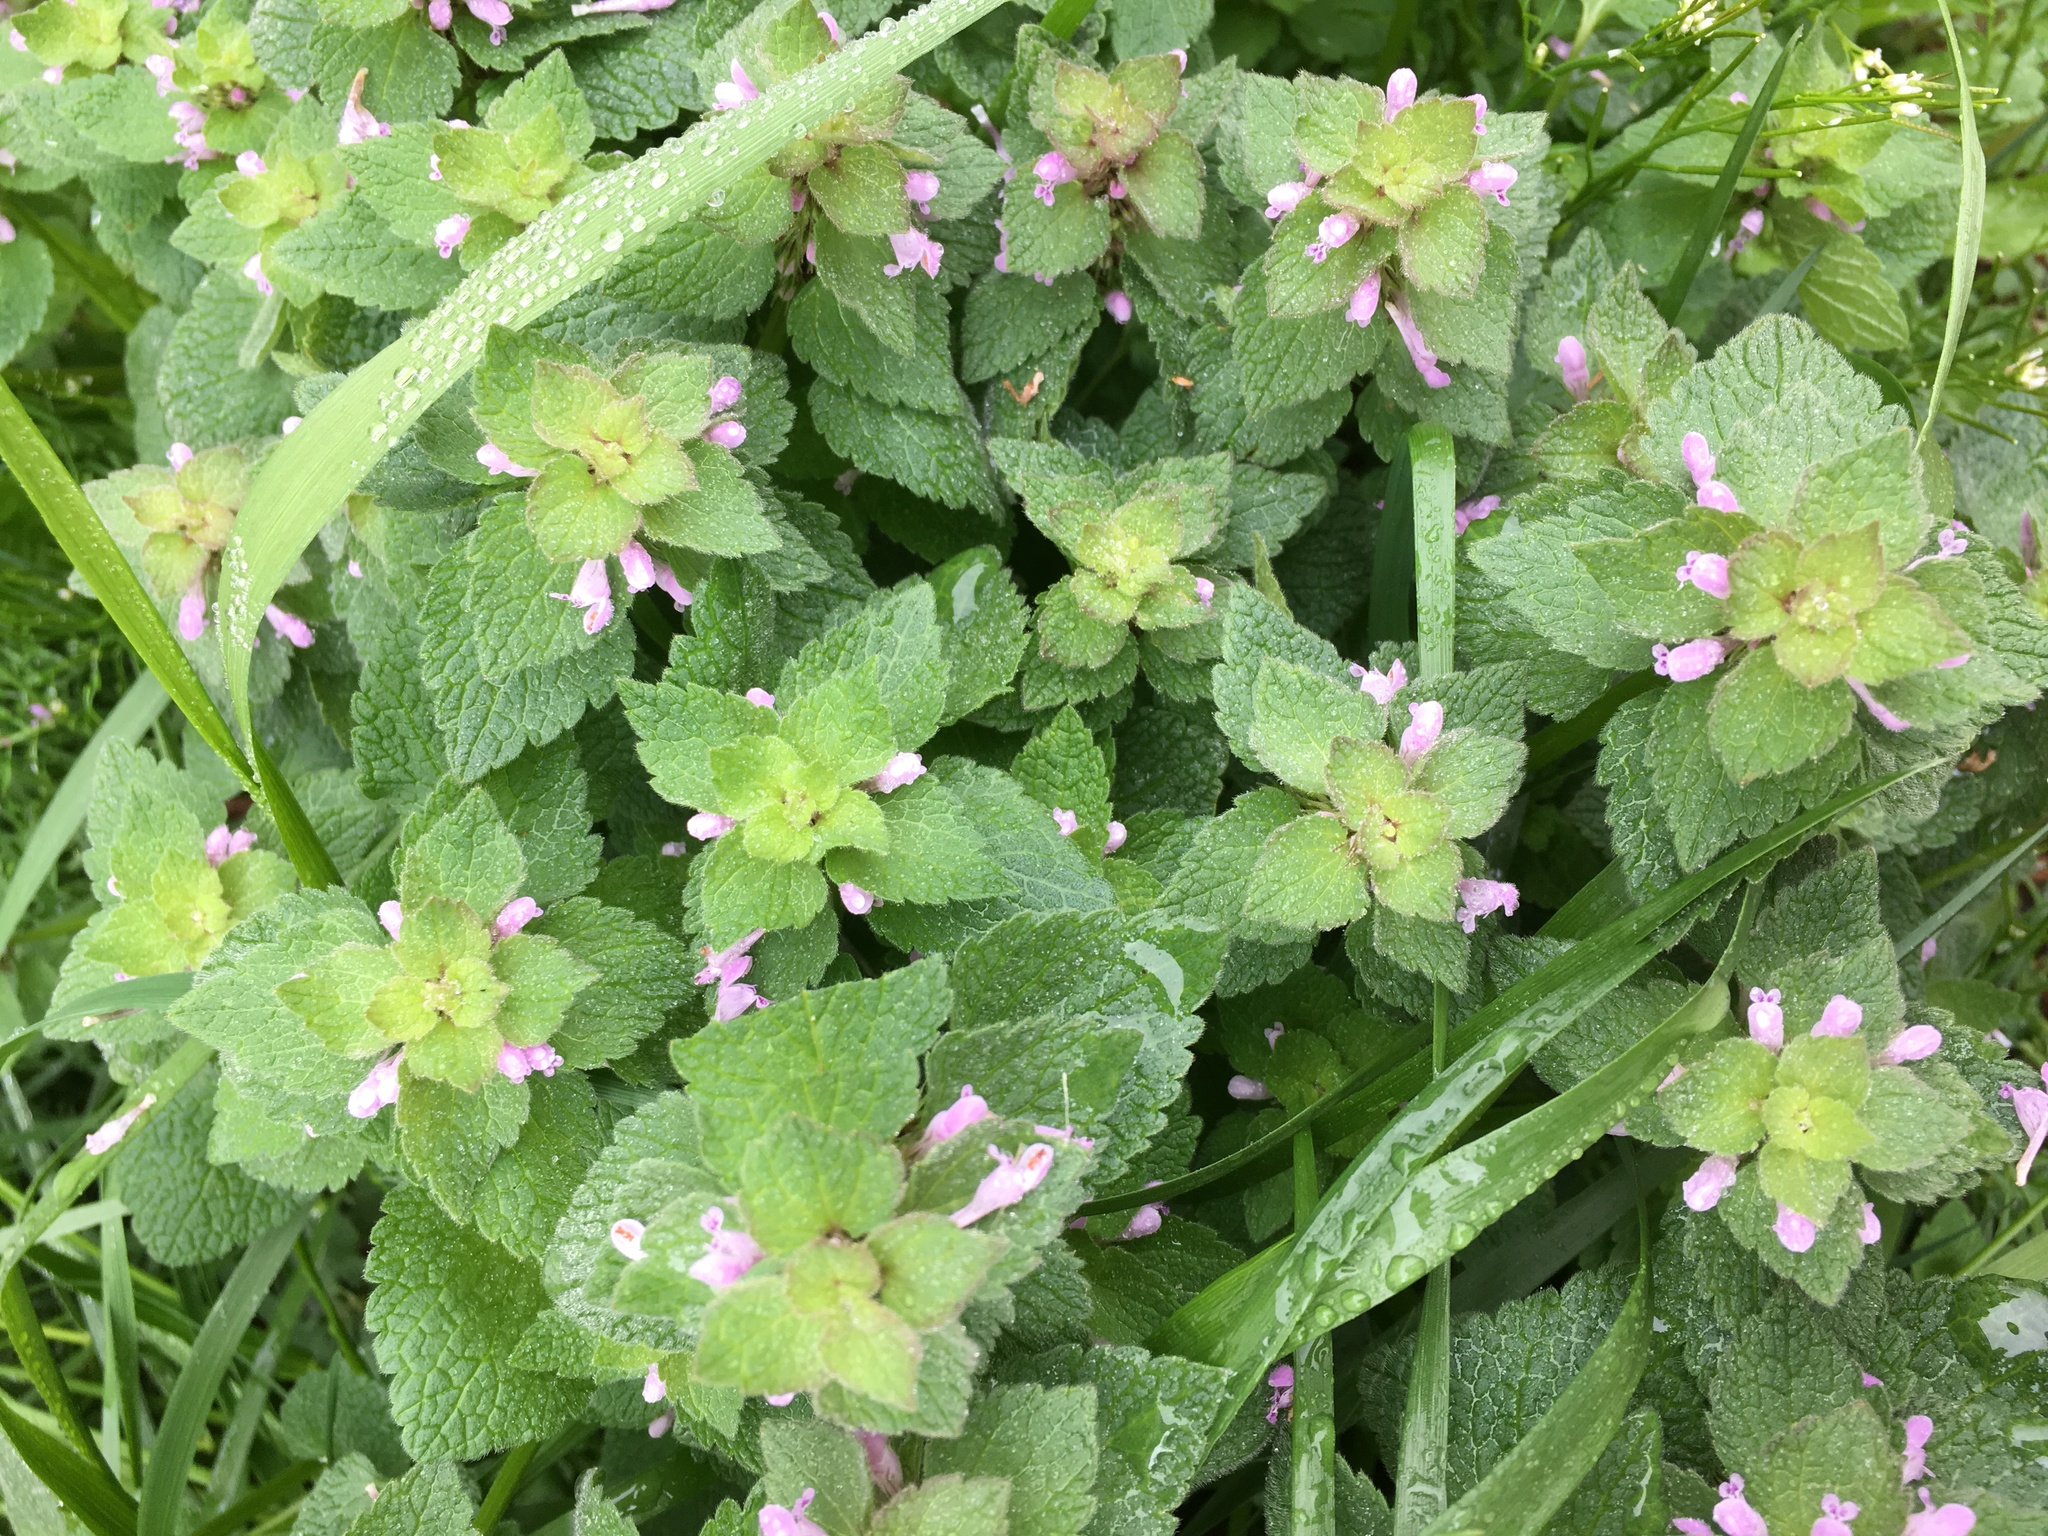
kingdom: Plantae
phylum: Tracheophyta
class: Magnoliopsida
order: Lamiales
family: Lamiaceae
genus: Lamium
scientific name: Lamium purpureum
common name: Red dead-nettle
